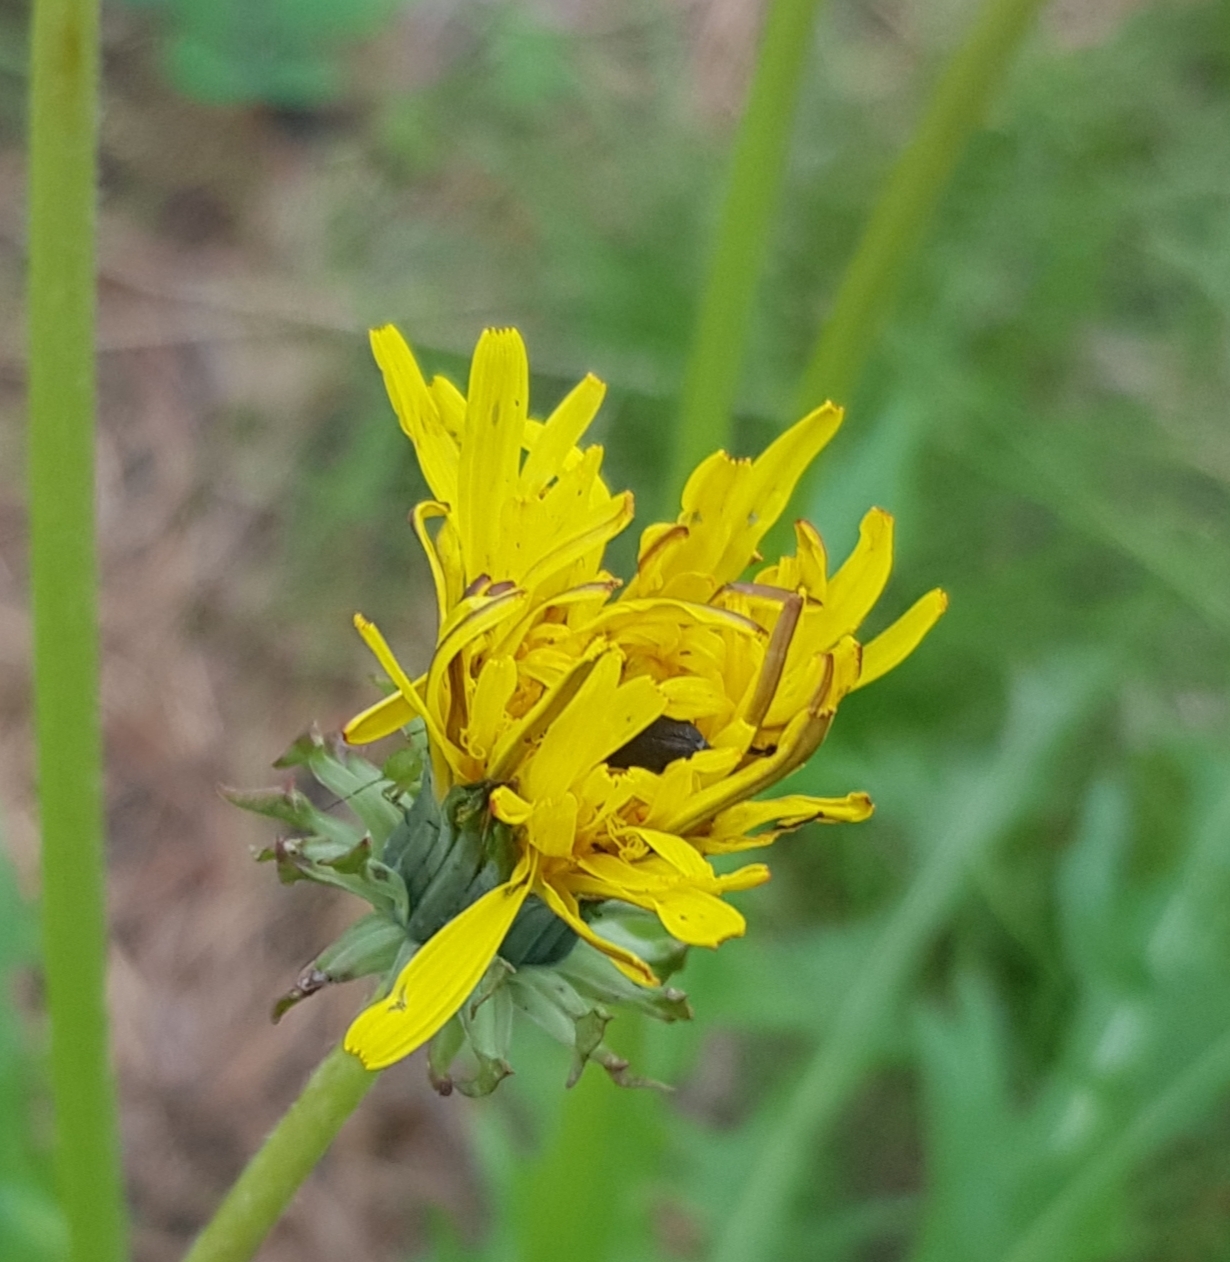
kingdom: Plantae
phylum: Tracheophyta
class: Magnoliopsida
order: Asterales
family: Asteraceae
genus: Taraxacum
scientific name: Taraxacum ceratophorum
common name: Horn-bearing dandelion
